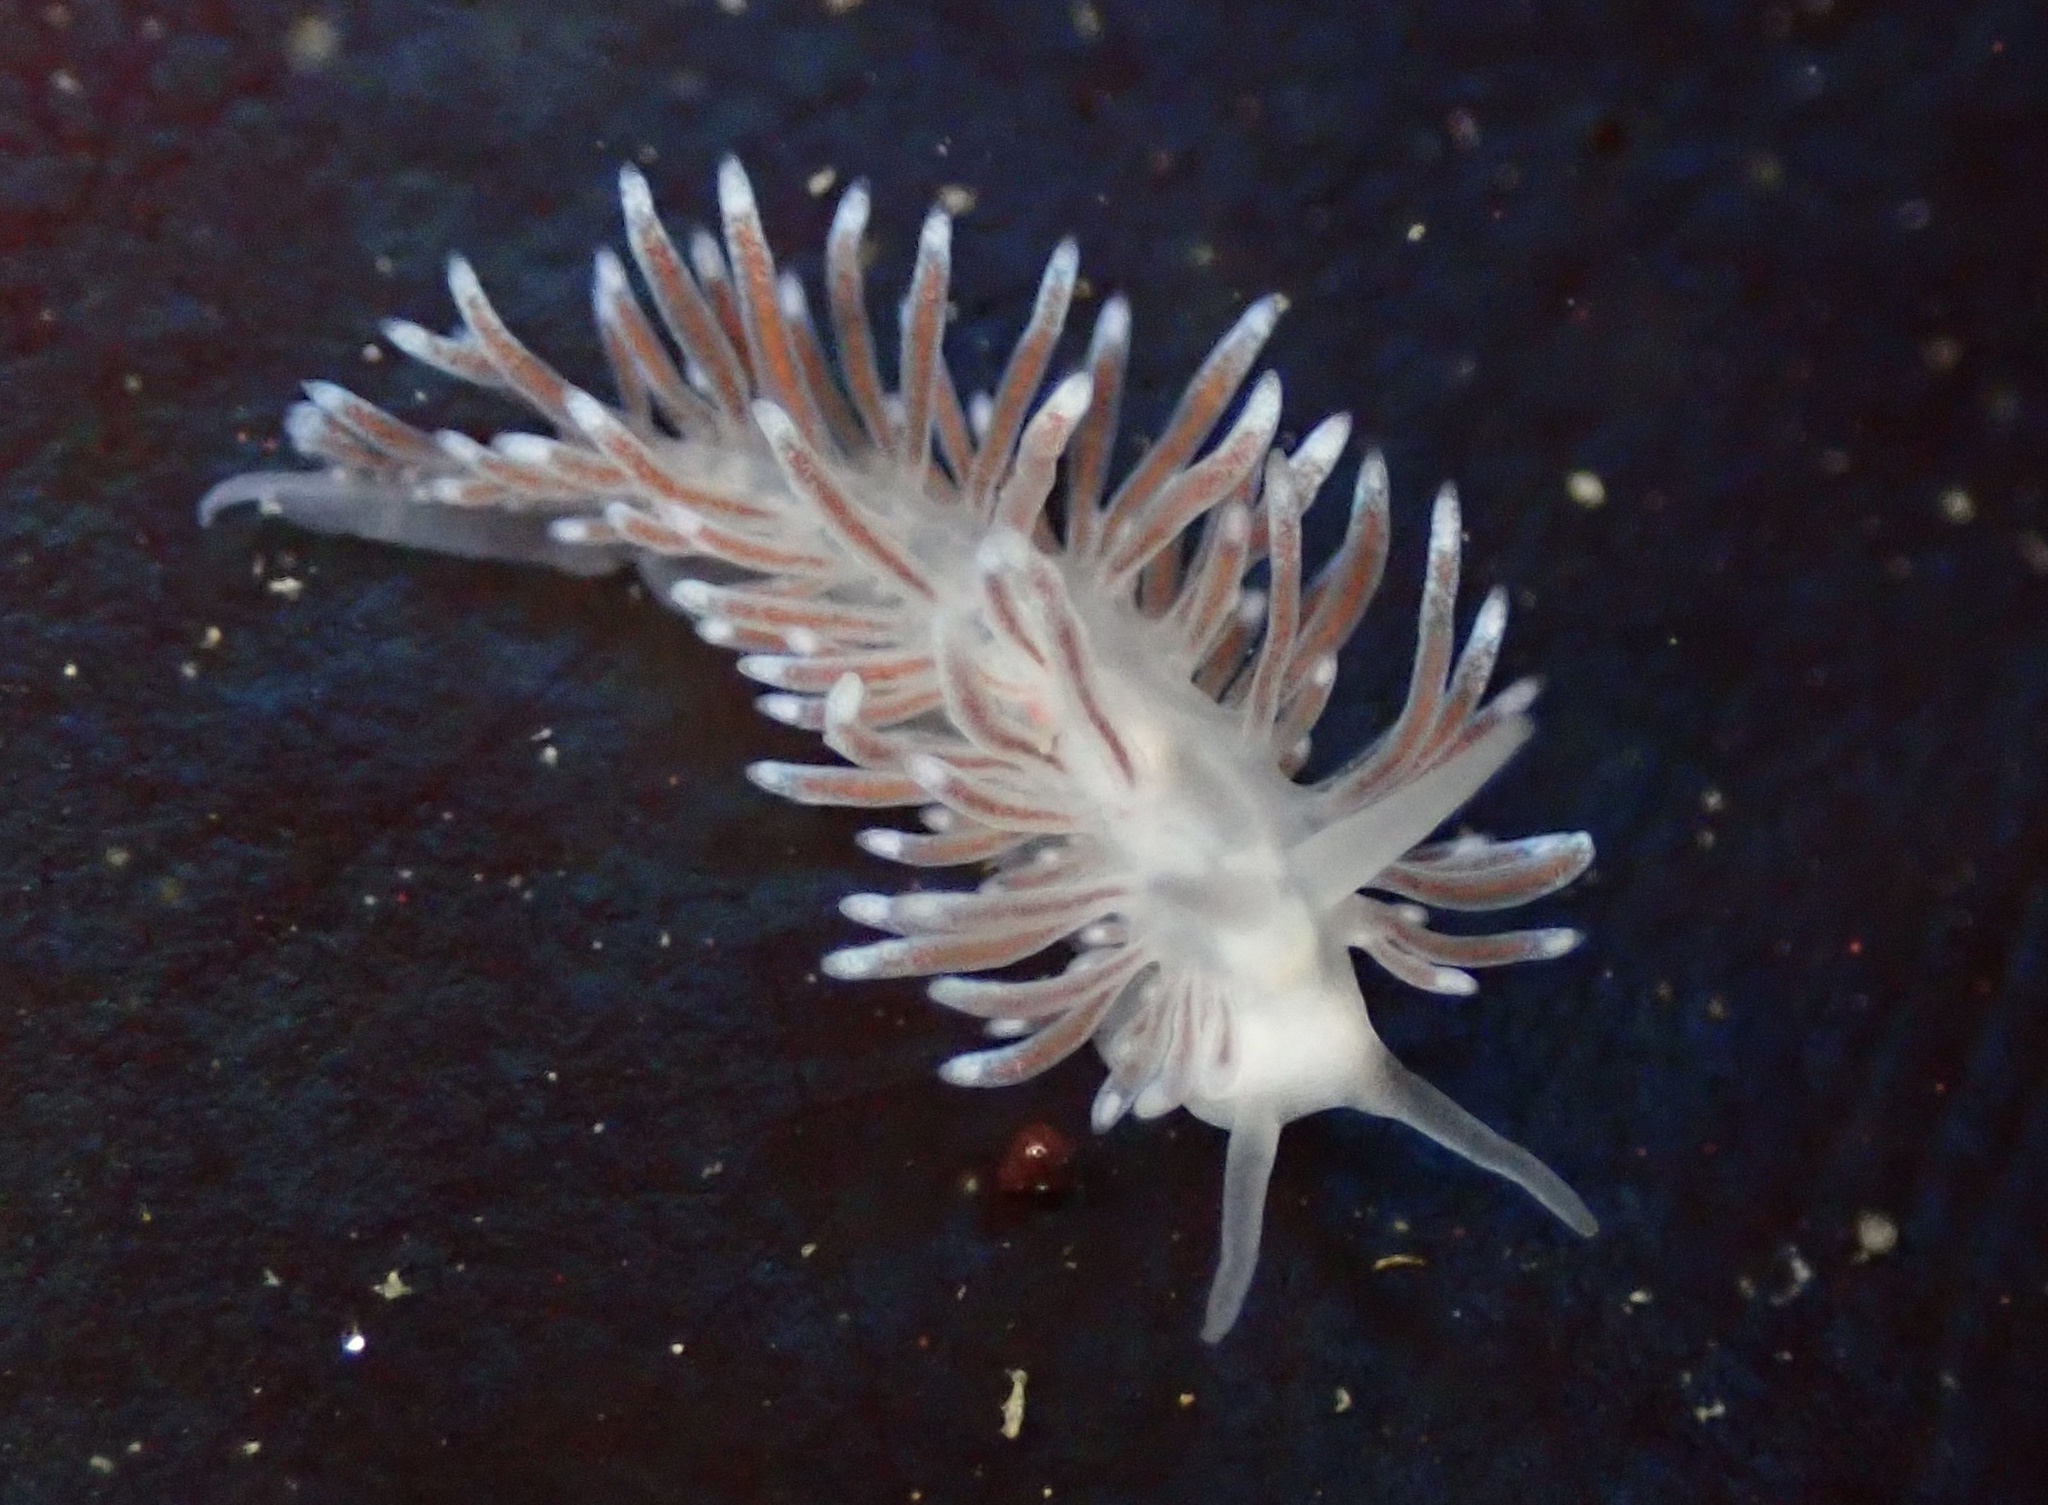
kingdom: Animalia
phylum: Mollusca
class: Gastropoda
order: Nudibranchia
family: Cuthonidae
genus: Cuthona
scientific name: Cuthona divae
